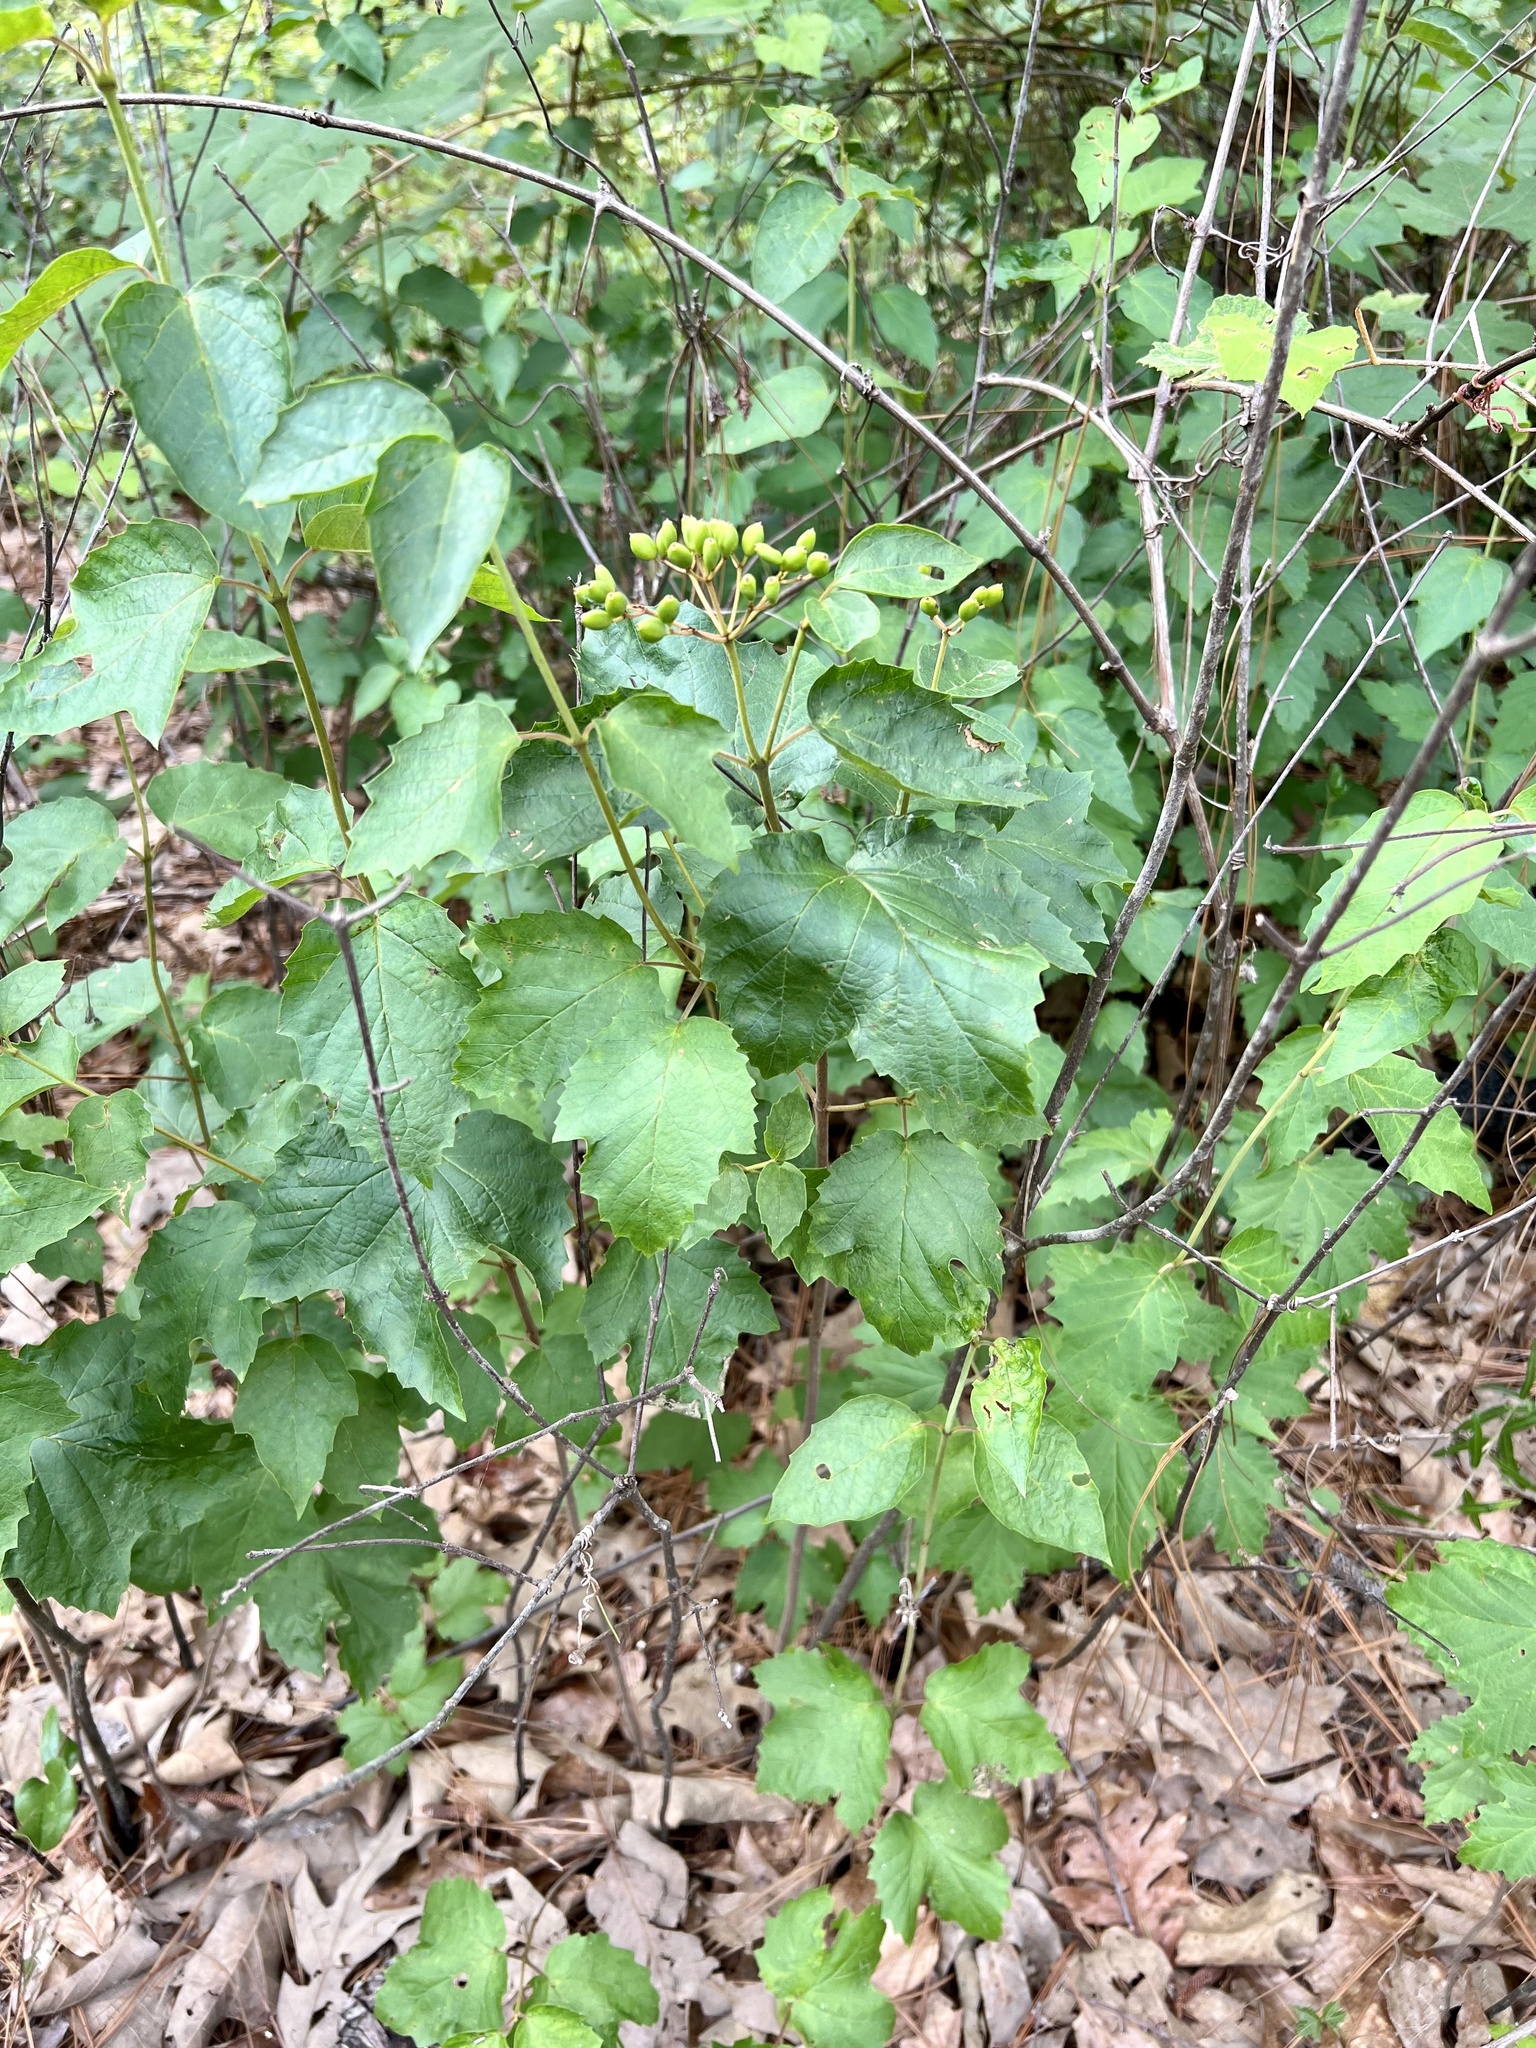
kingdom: Plantae
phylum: Tracheophyta
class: Magnoliopsida
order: Dipsacales
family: Viburnaceae
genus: Viburnum
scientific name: Viburnum acerifolium
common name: Dockmackie
